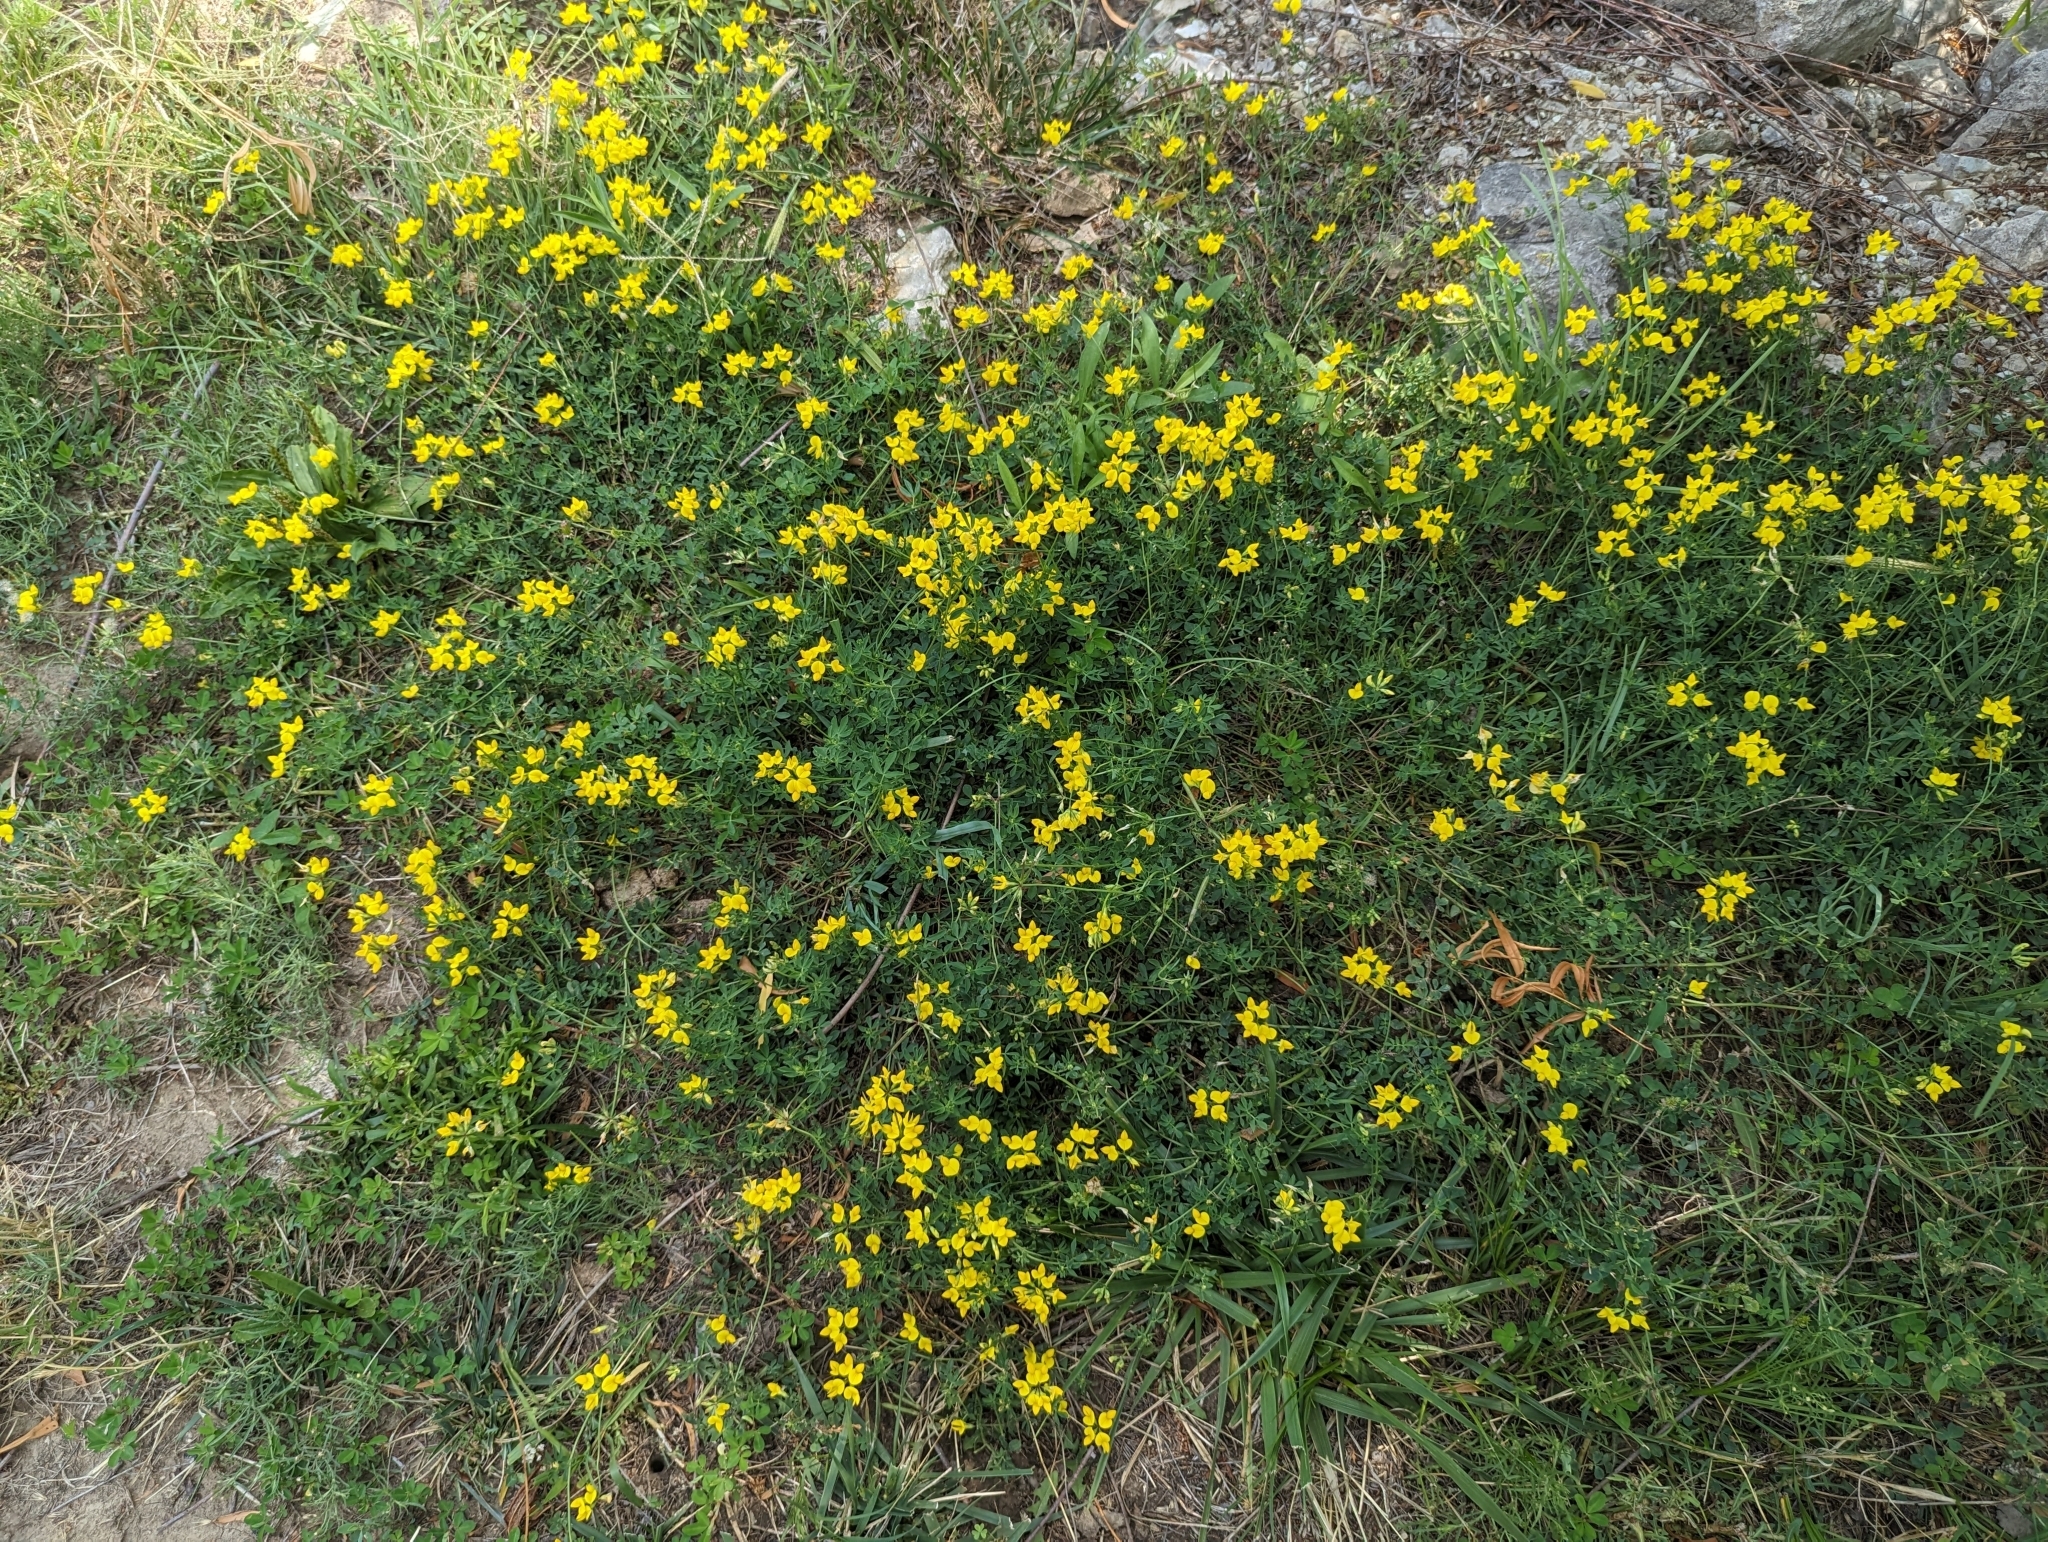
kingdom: Plantae
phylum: Tracheophyta
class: Magnoliopsida
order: Fabales
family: Fabaceae
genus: Lotus
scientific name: Lotus corniculatus
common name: Common bird's-foot-trefoil
